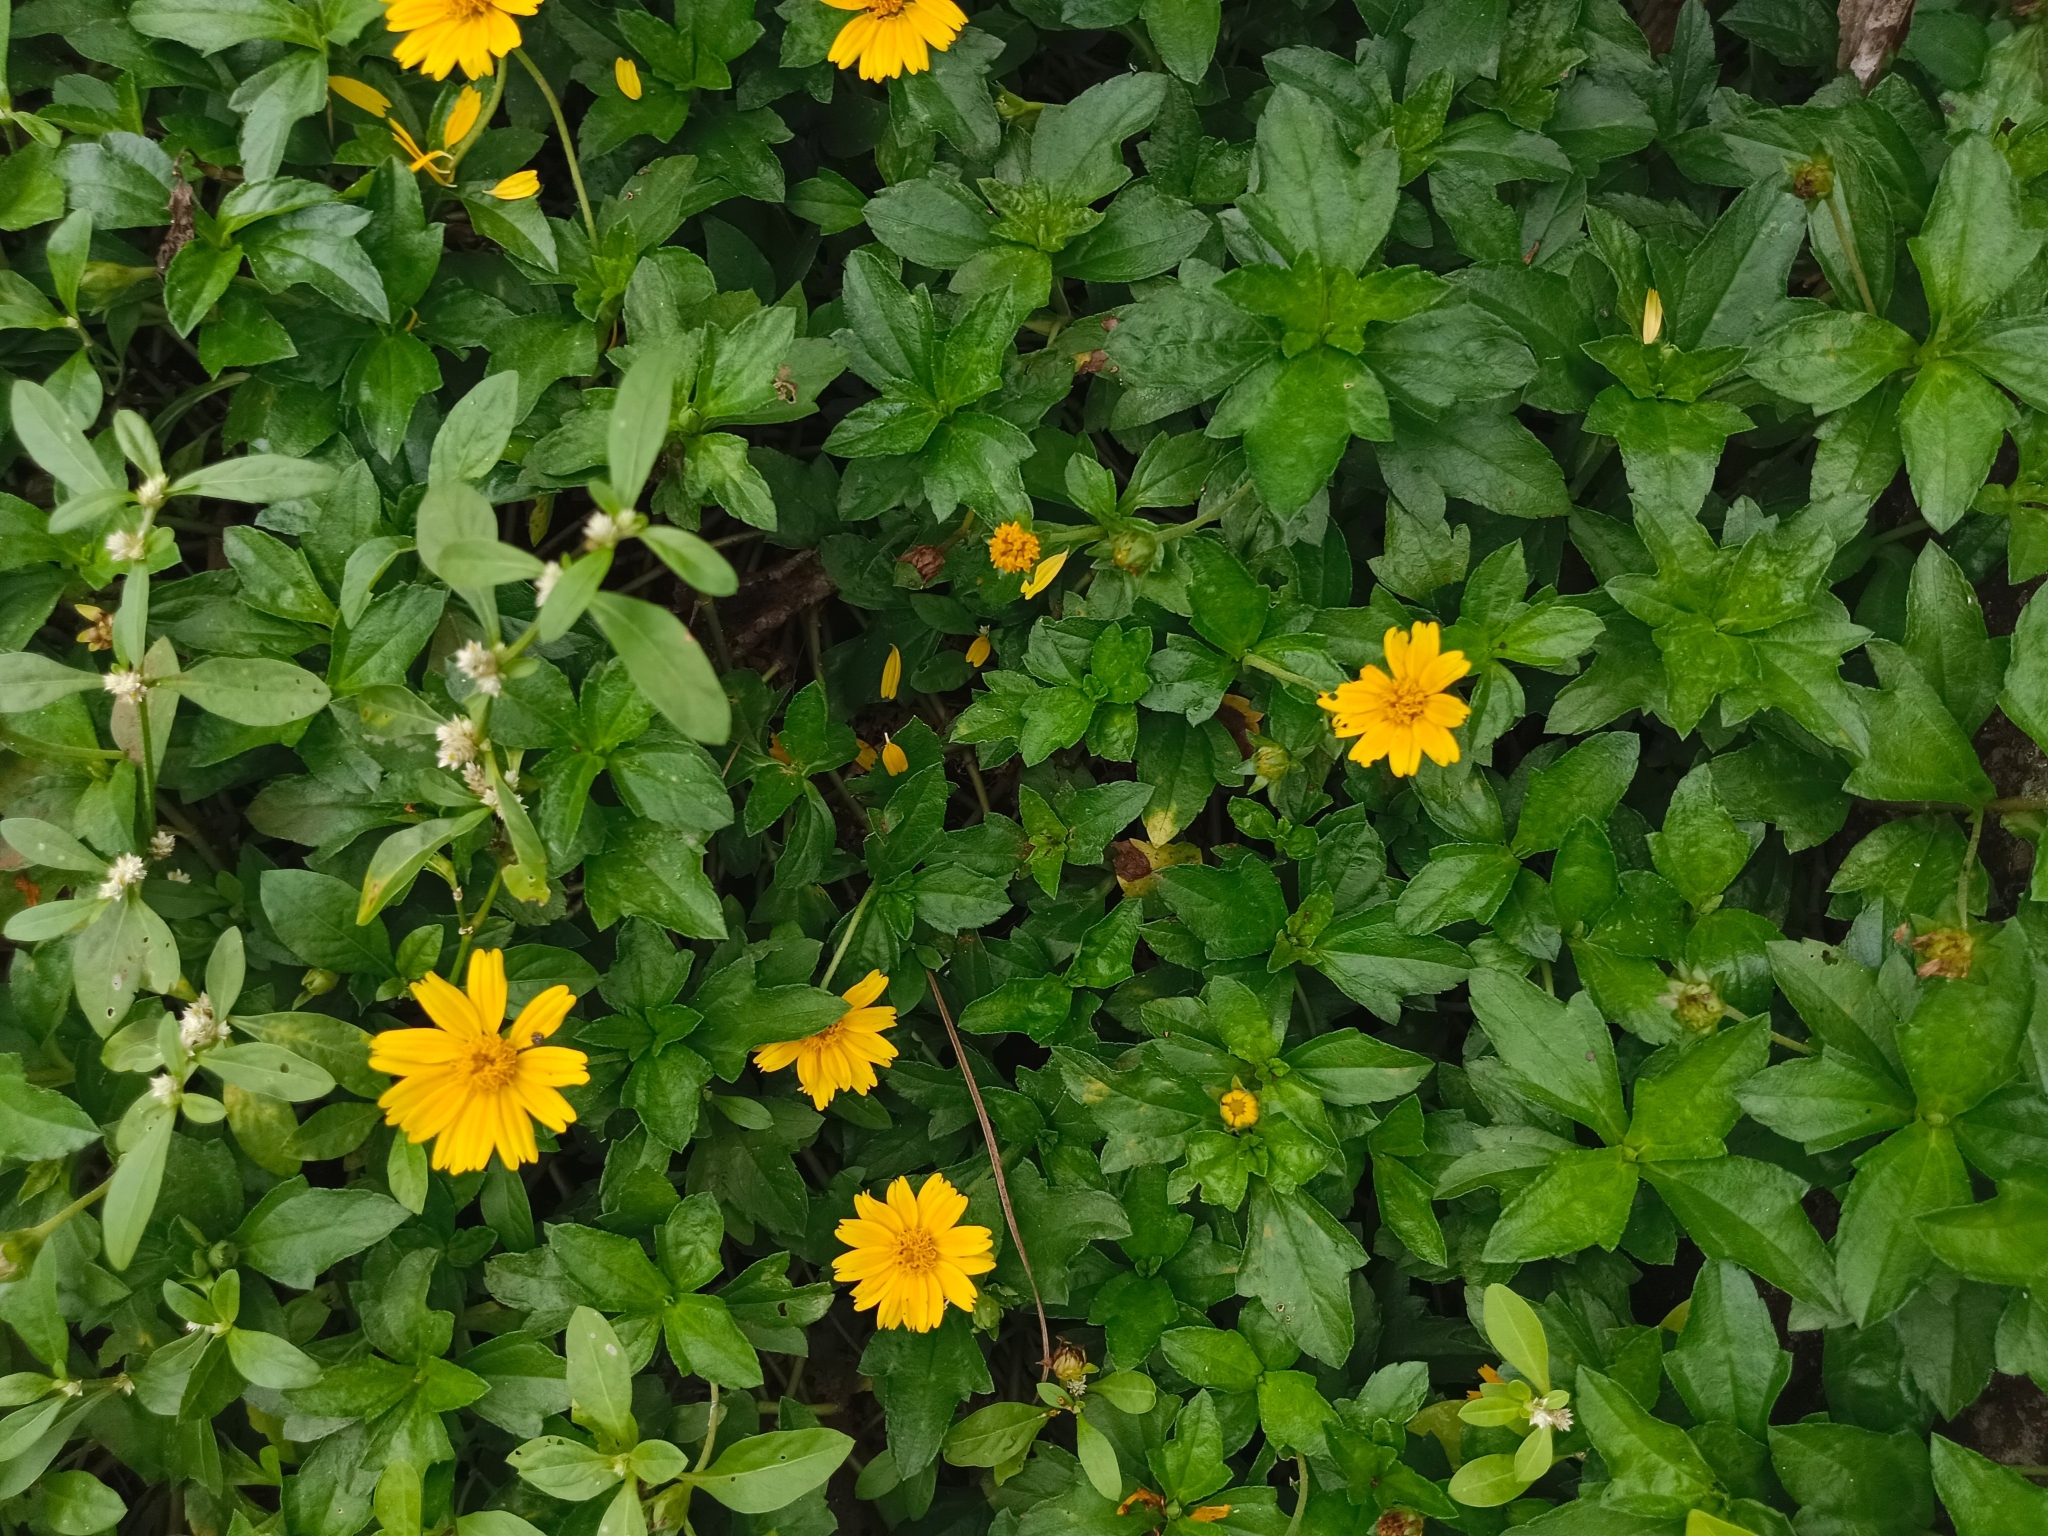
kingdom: Plantae
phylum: Tracheophyta
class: Magnoliopsida
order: Asterales
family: Asteraceae
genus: Sphagneticola
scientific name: Sphagneticola trilobata
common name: Bay biscayne creeping-oxeye
